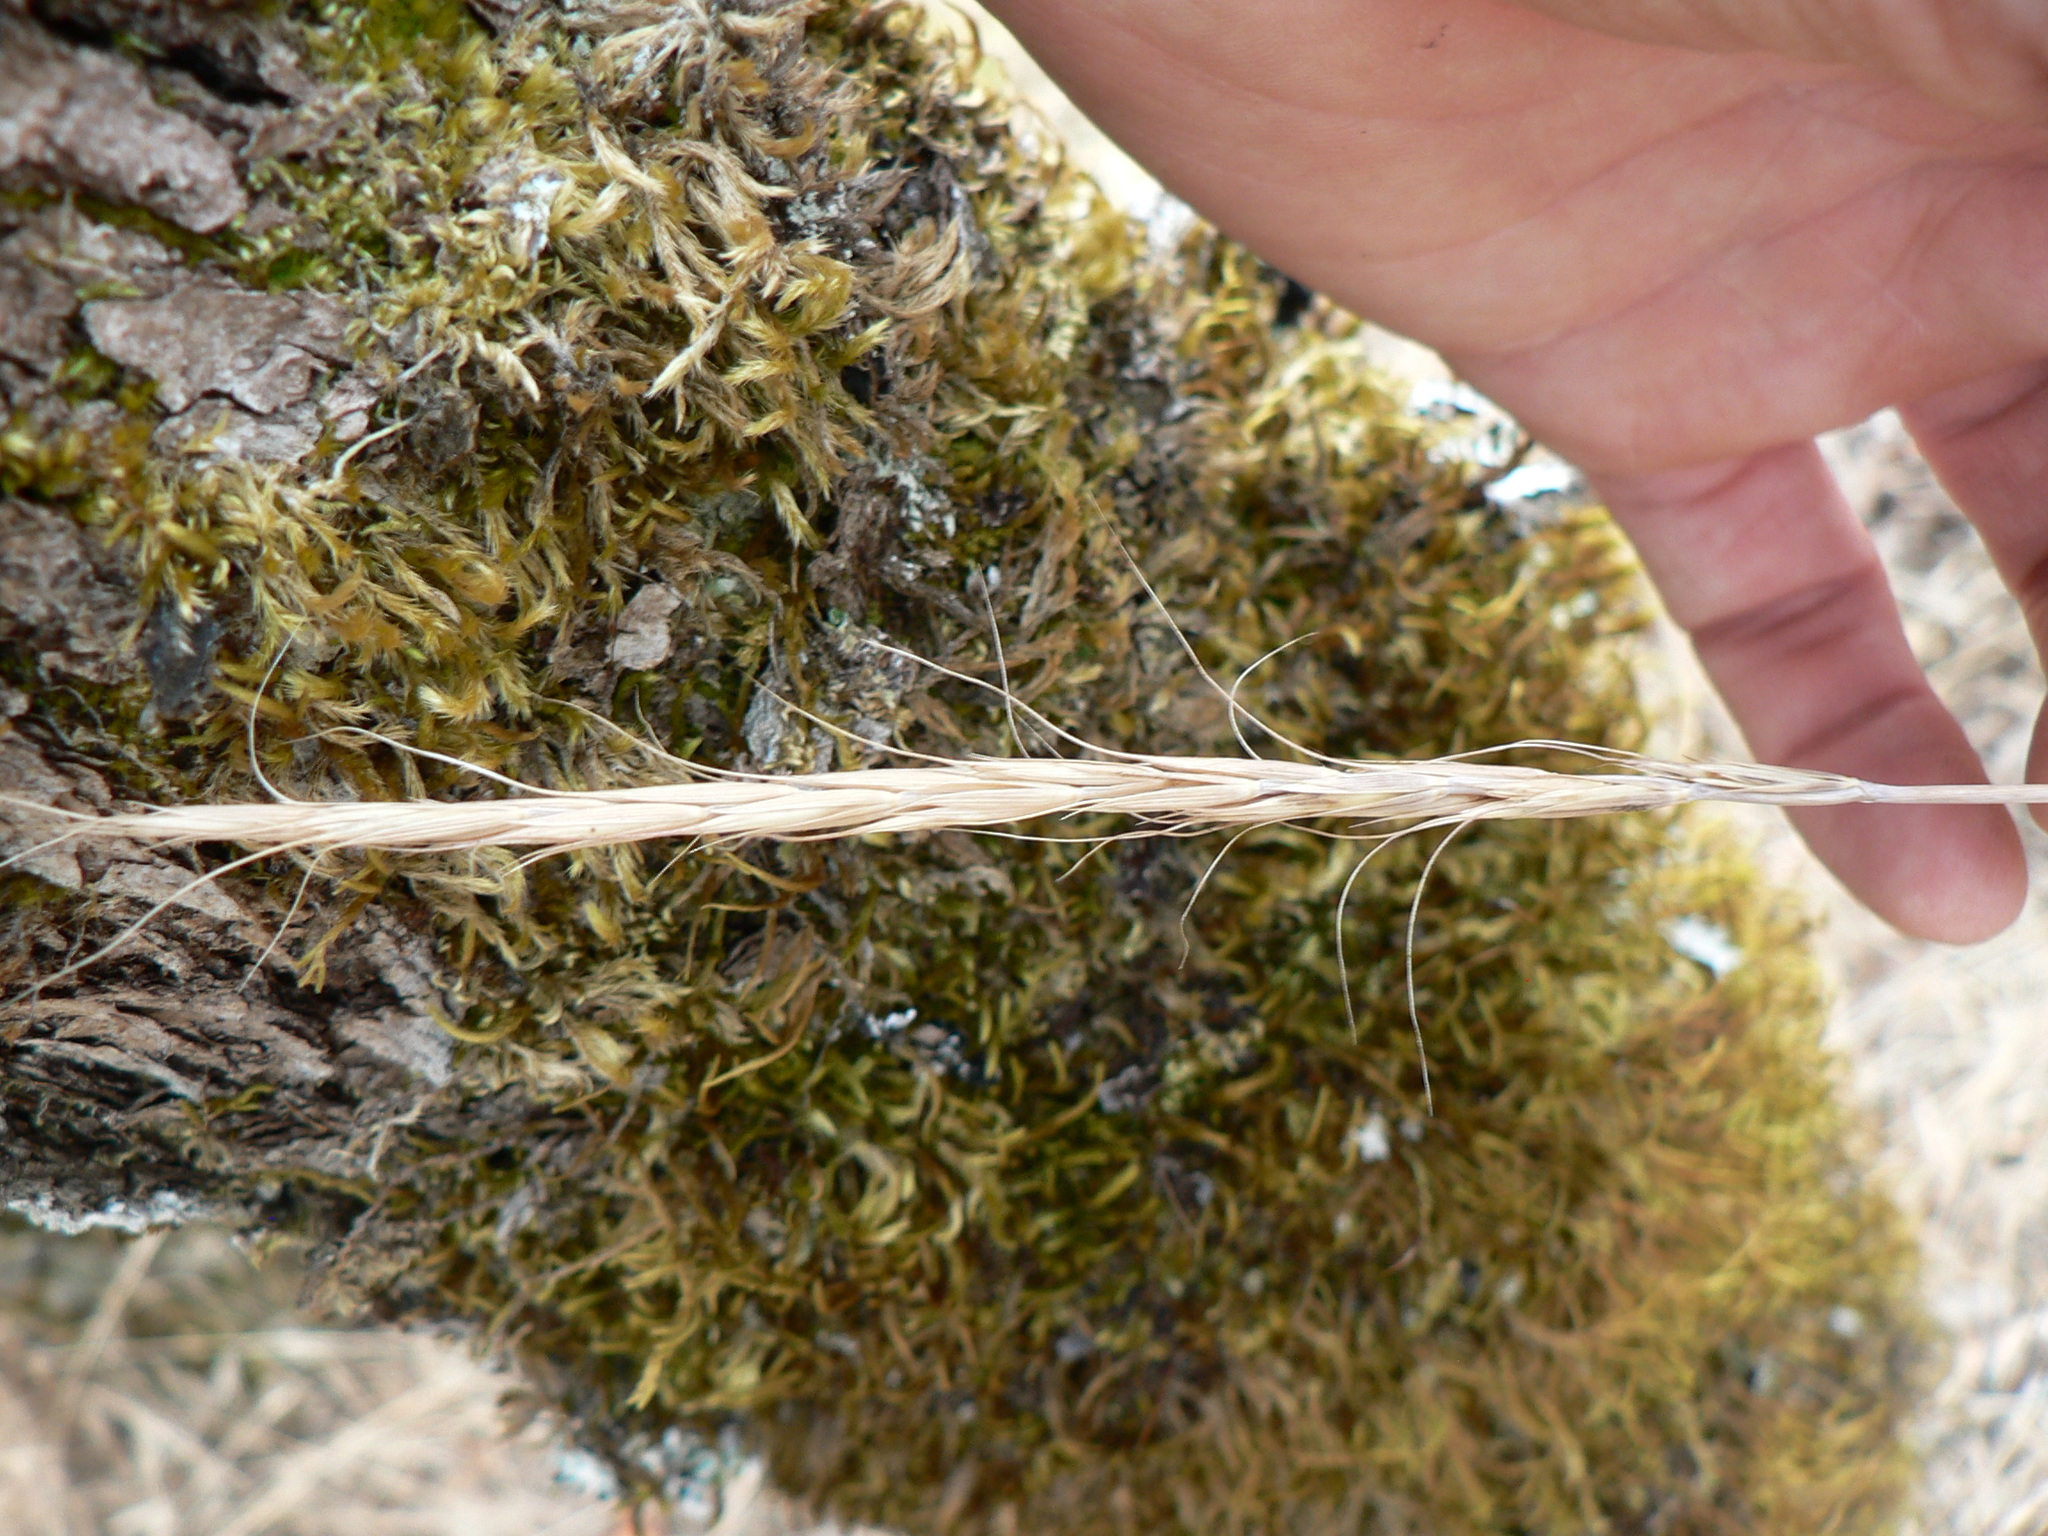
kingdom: Plantae
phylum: Tracheophyta
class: Liliopsida
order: Poales
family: Poaceae
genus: Elymus
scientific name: Elymus glaucus
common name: Blue wild rye
